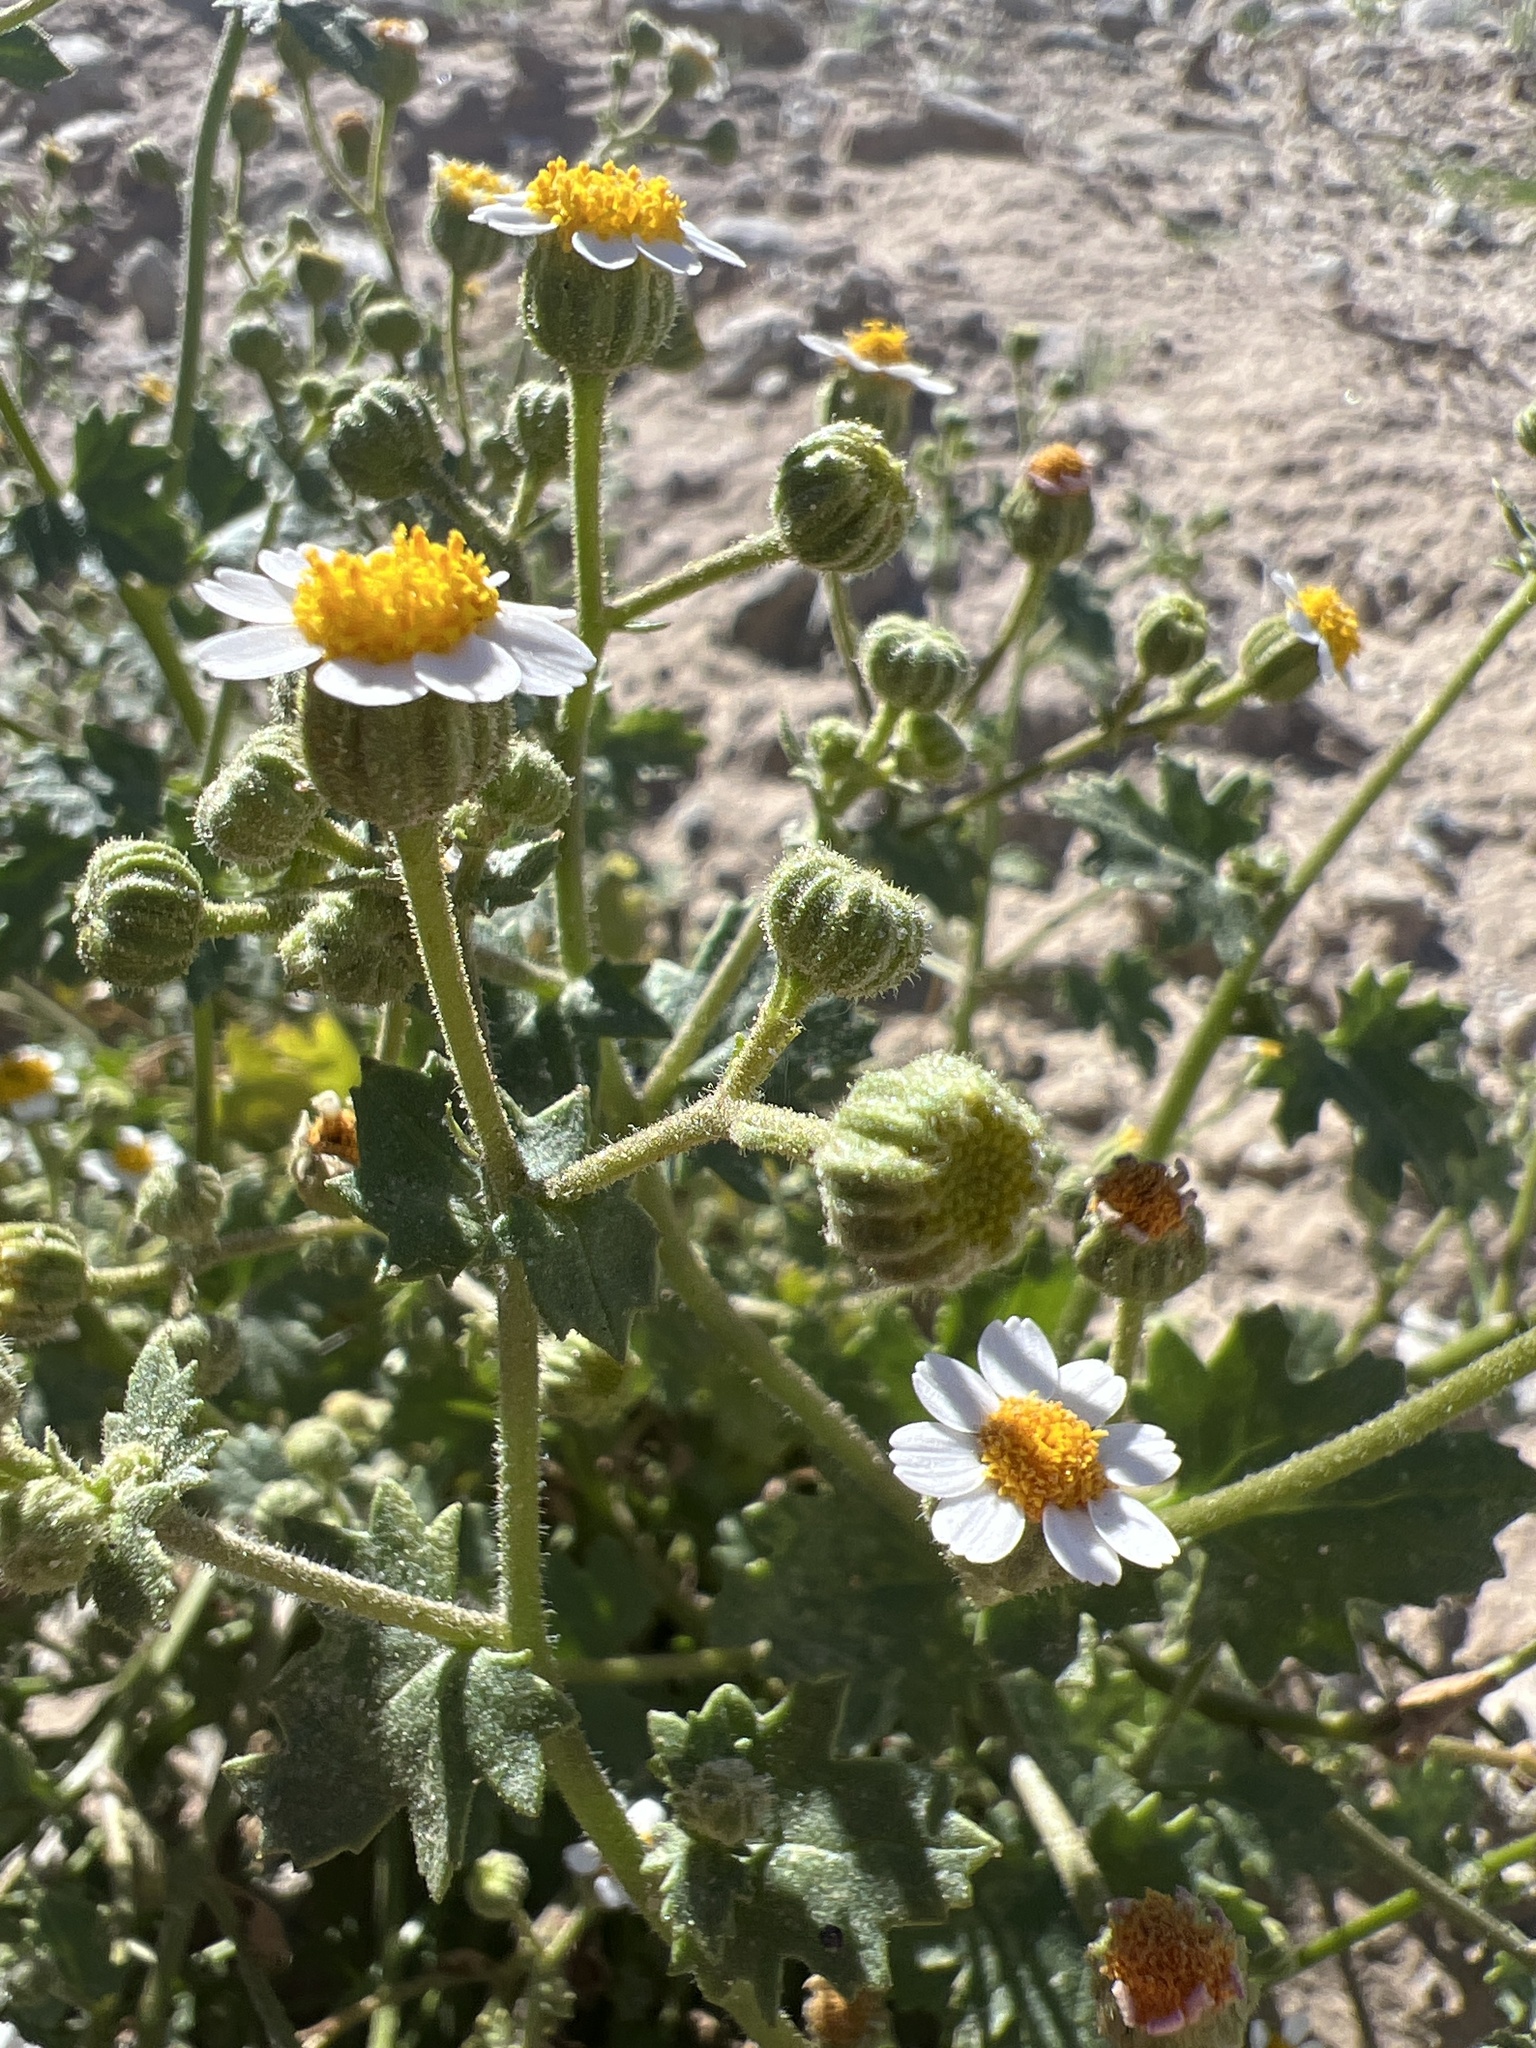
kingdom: Plantae
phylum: Tracheophyta
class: Magnoliopsida
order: Asterales
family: Asteraceae
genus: Laphamia
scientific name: Laphamia emoryi
